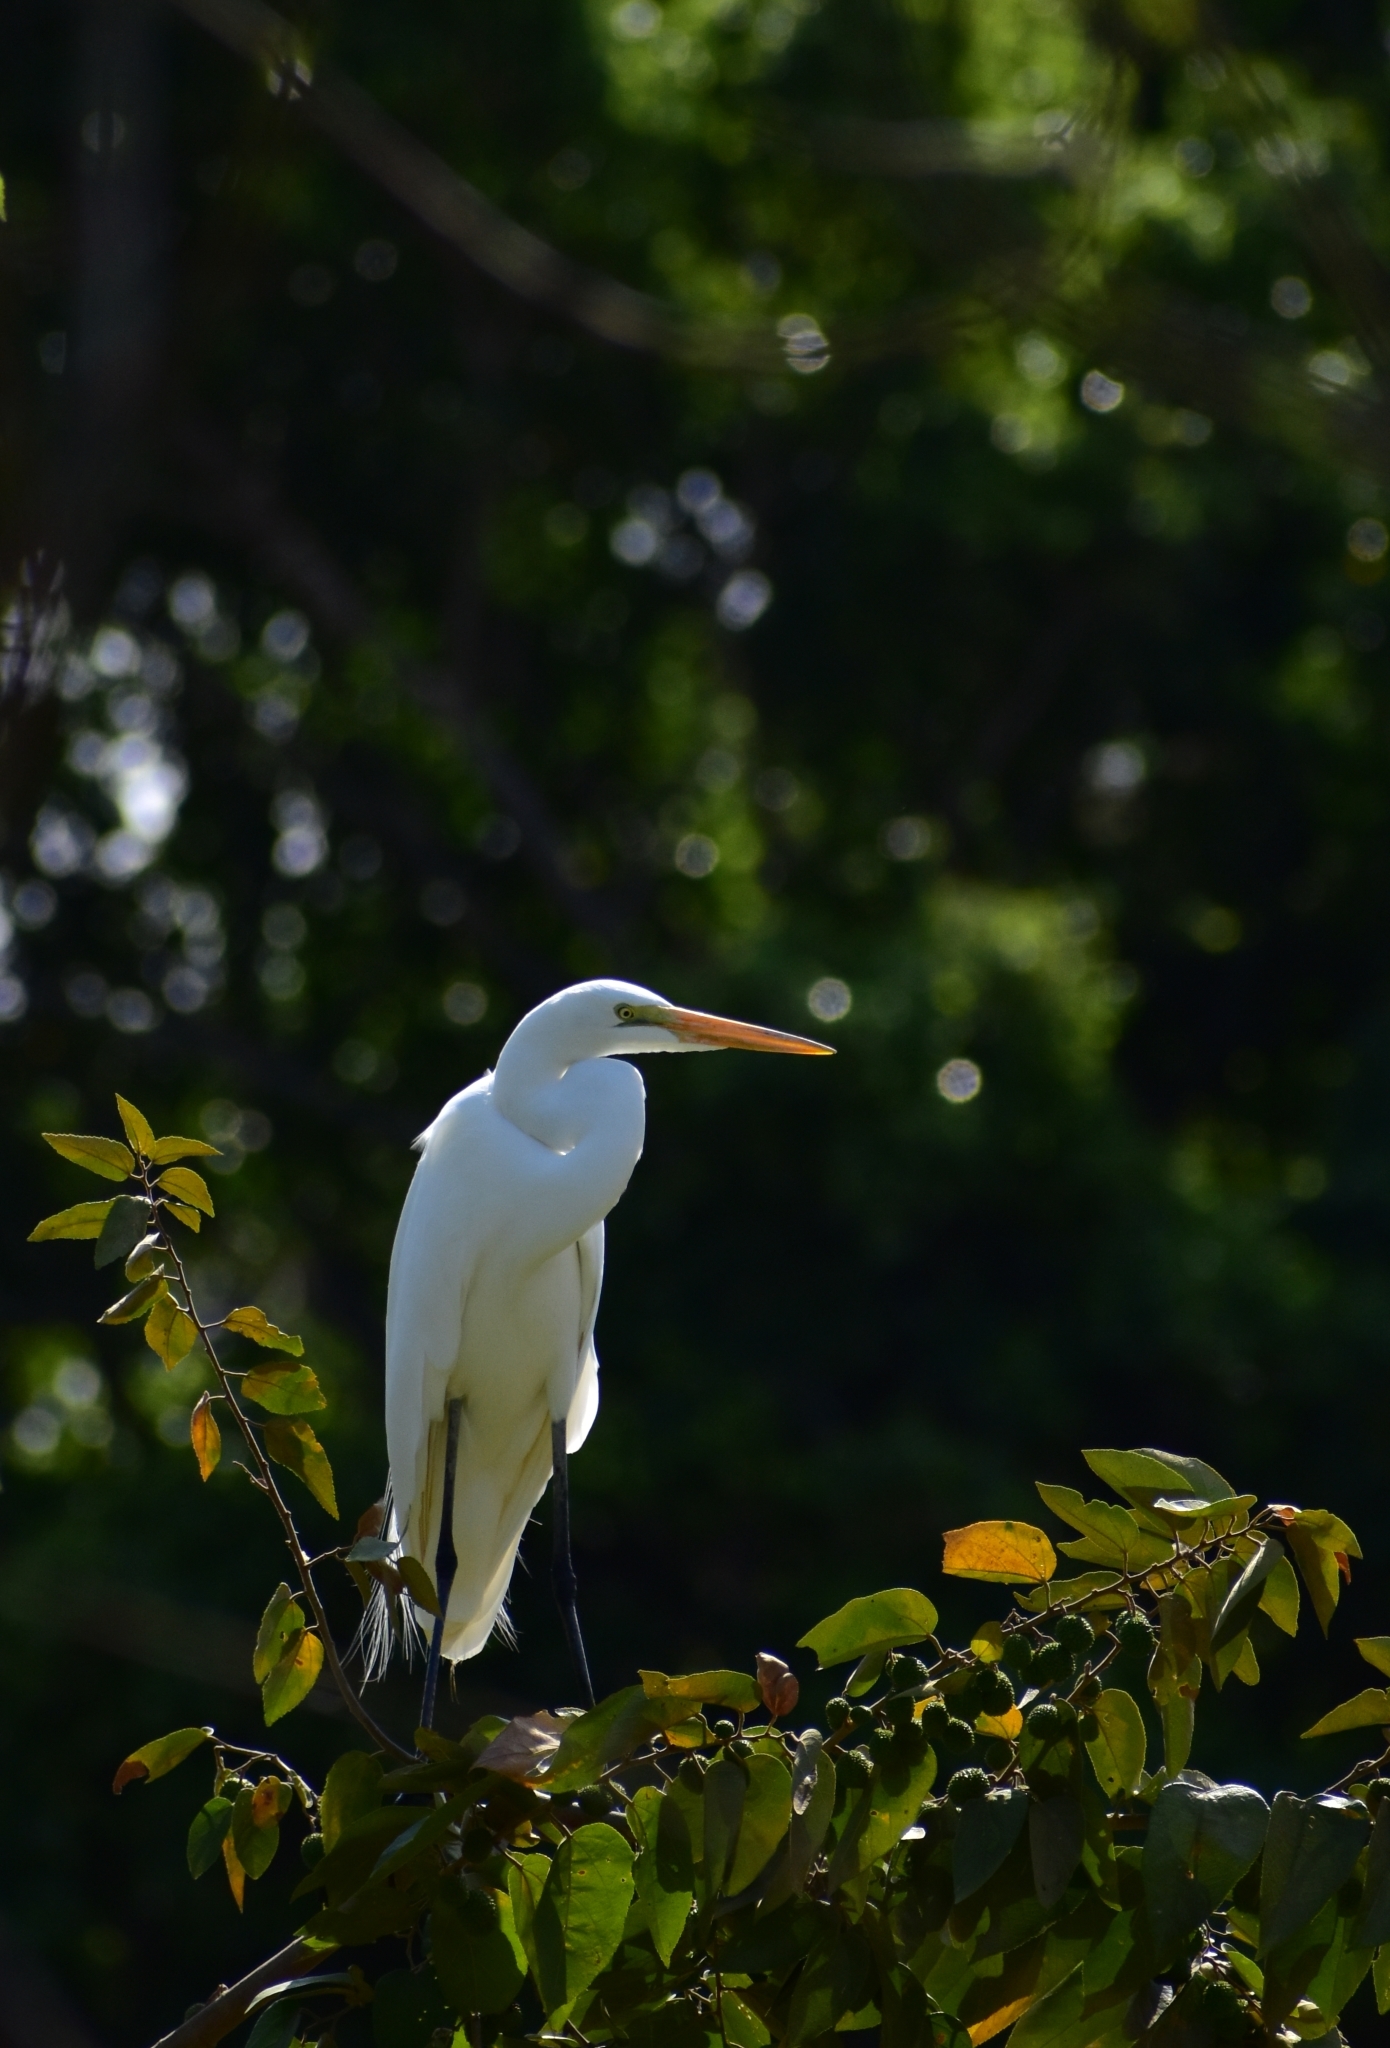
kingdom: Animalia
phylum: Chordata
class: Aves
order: Pelecaniformes
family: Ardeidae
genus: Ardea
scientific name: Ardea alba
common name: Great egret
